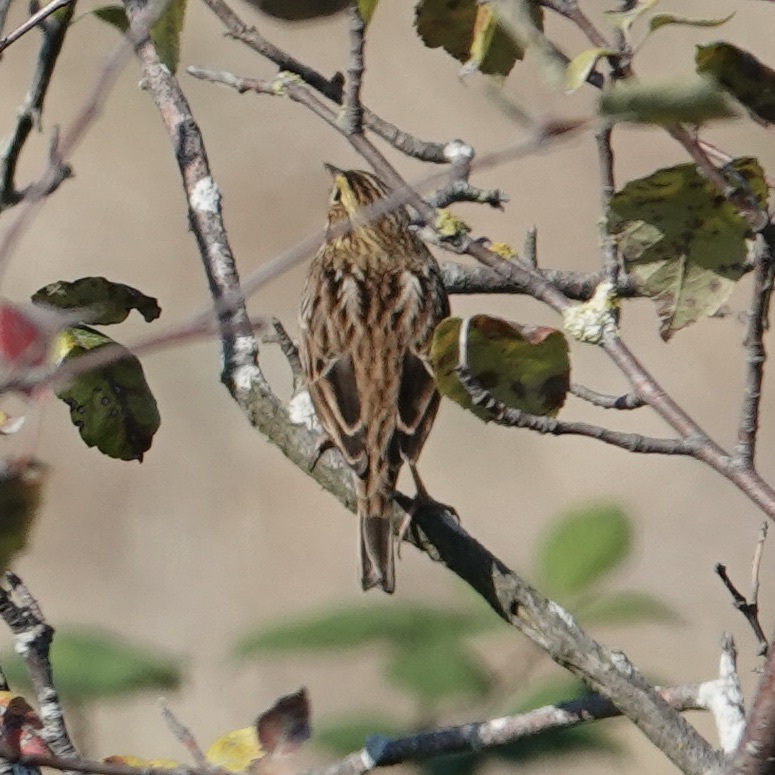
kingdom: Animalia
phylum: Chordata
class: Aves
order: Passeriformes
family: Passerellidae
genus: Passerculus
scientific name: Passerculus sandwichensis
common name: Savannah sparrow
